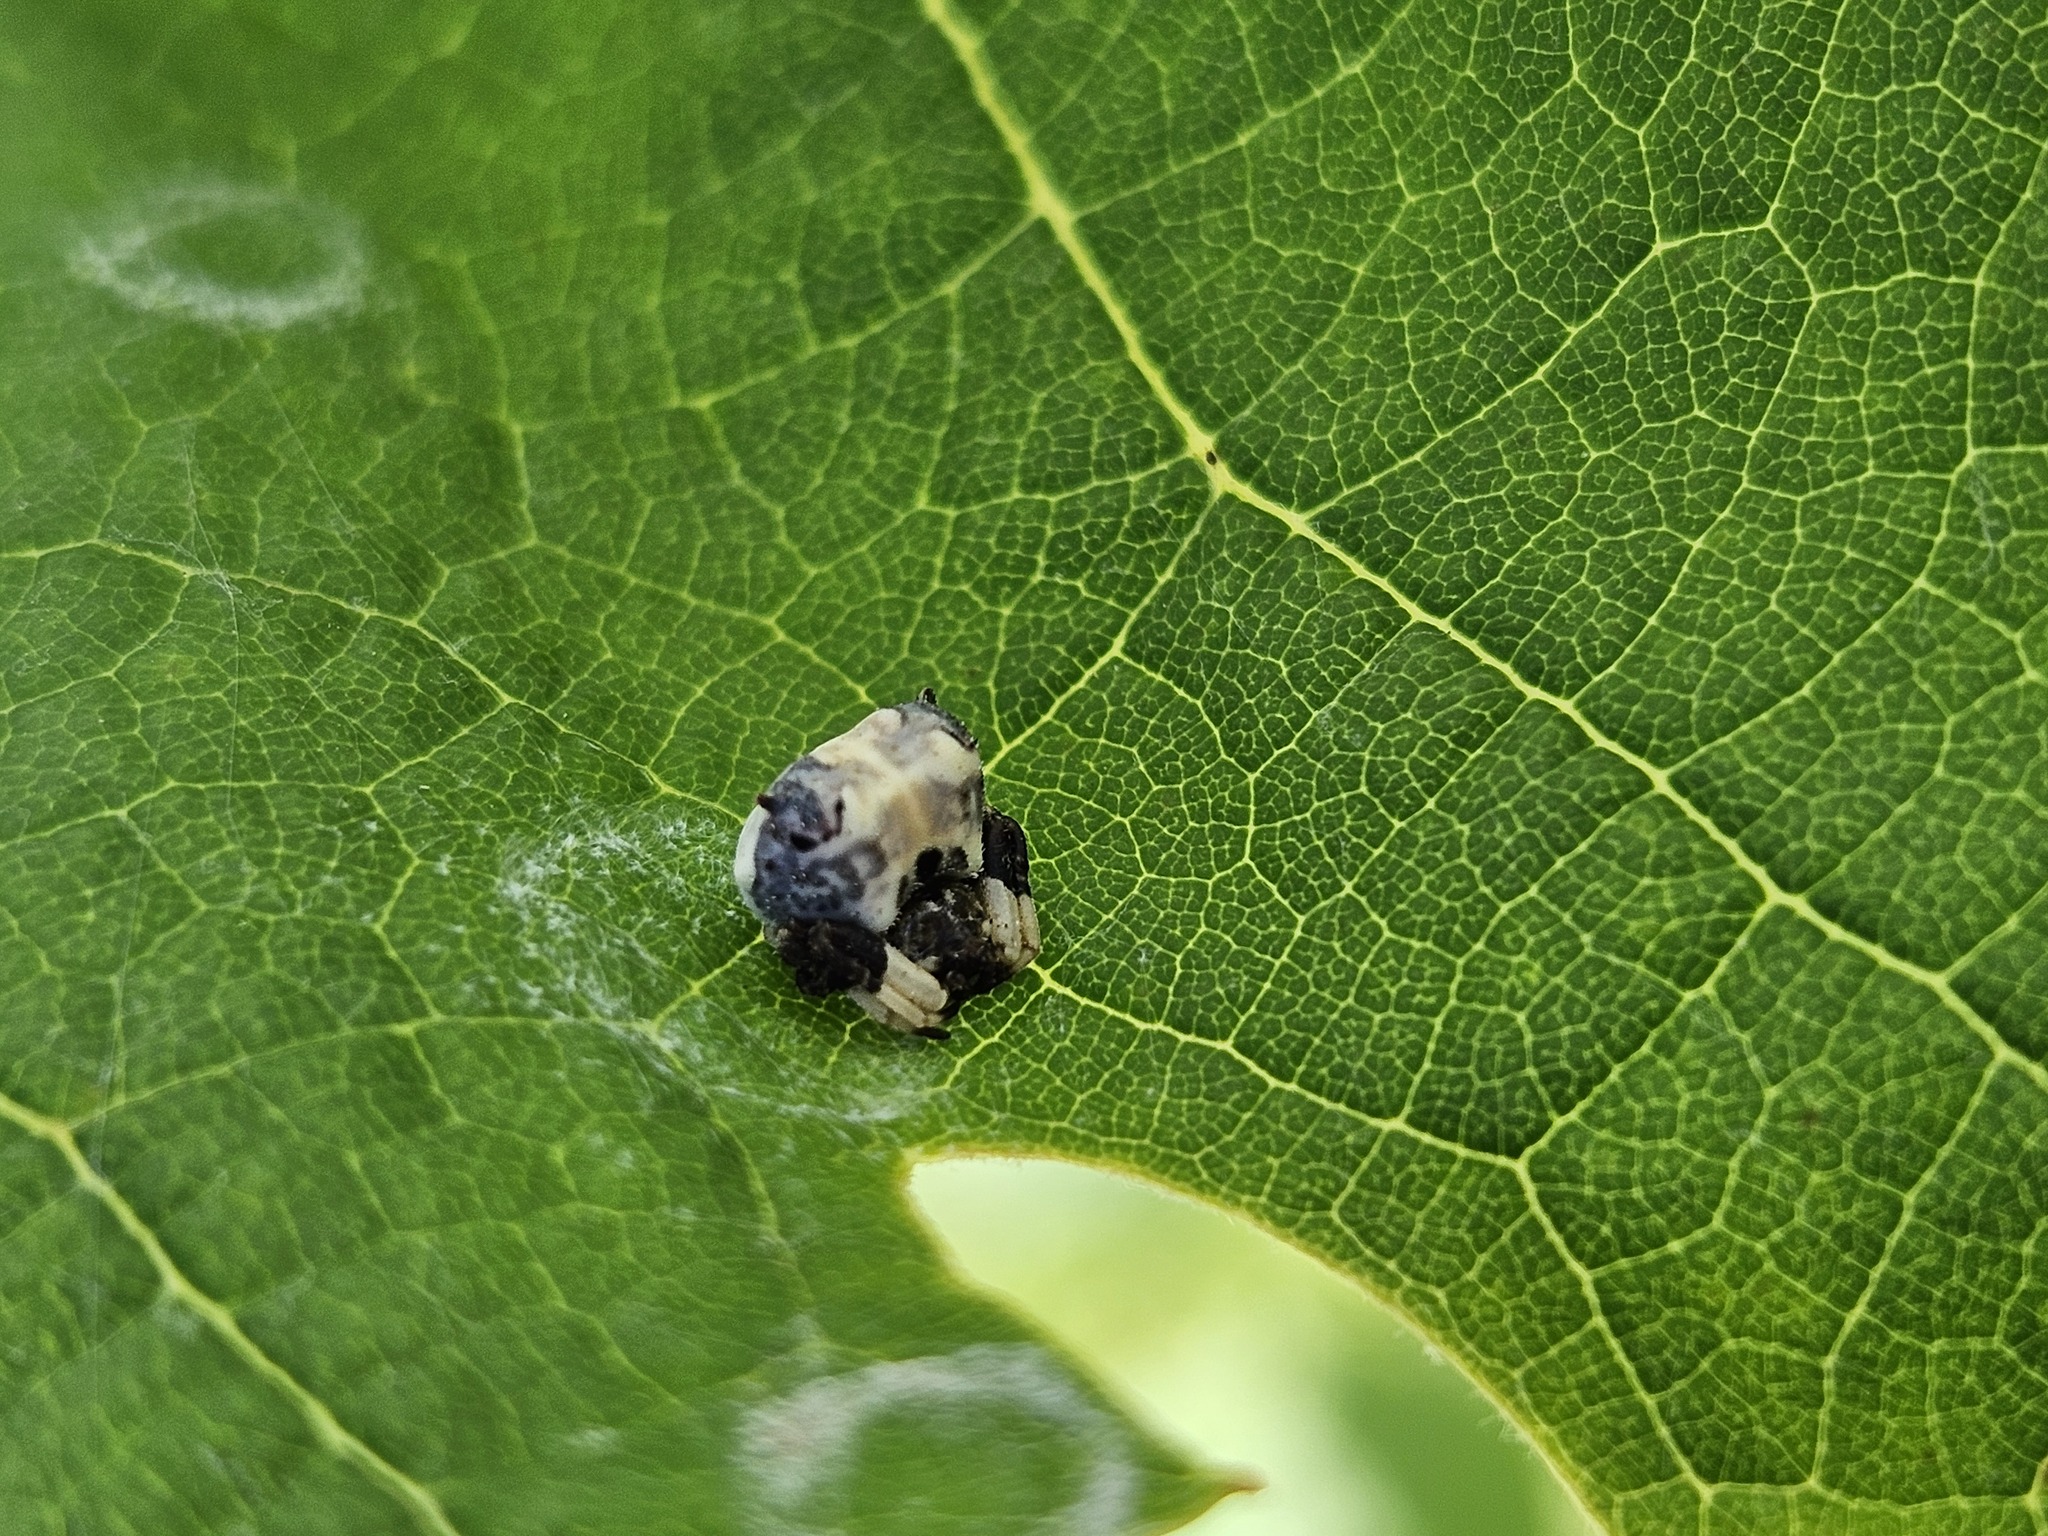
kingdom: Animalia
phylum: Arthropoda
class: Arachnida
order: Araneae
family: Araneidae
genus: Celaenia
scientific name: Celaenia excavata
